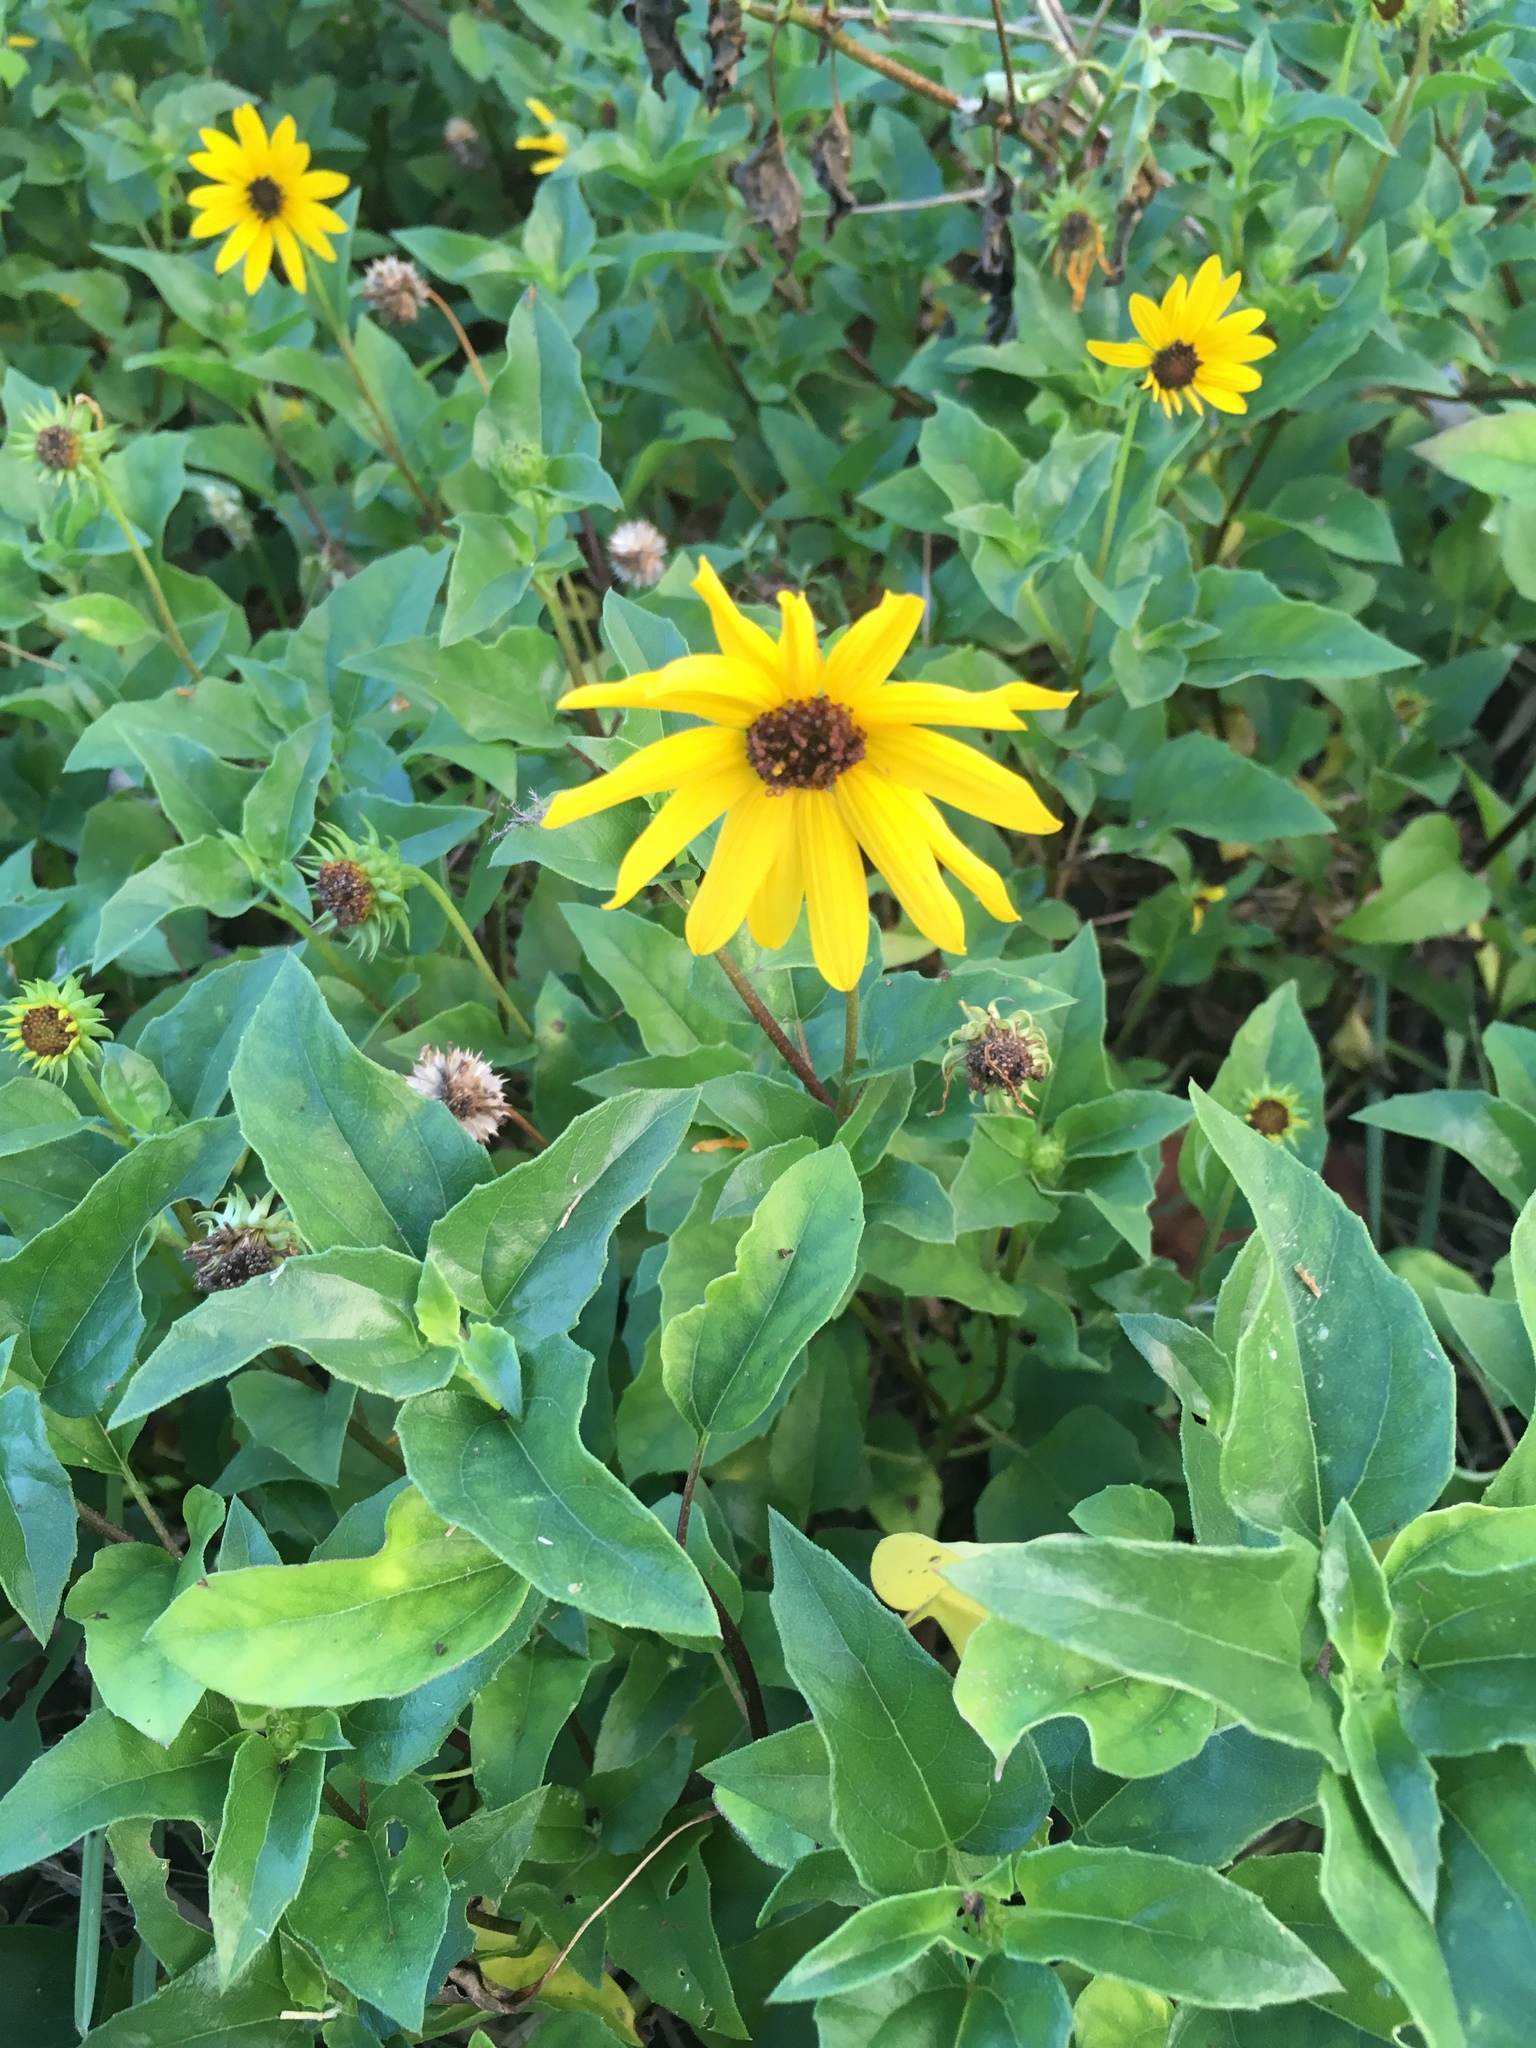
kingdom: Plantae
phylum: Tracheophyta
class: Magnoliopsida
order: Asterales
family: Asteraceae
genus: Helianthus
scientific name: Helianthus debilis
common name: Weak sunflower
